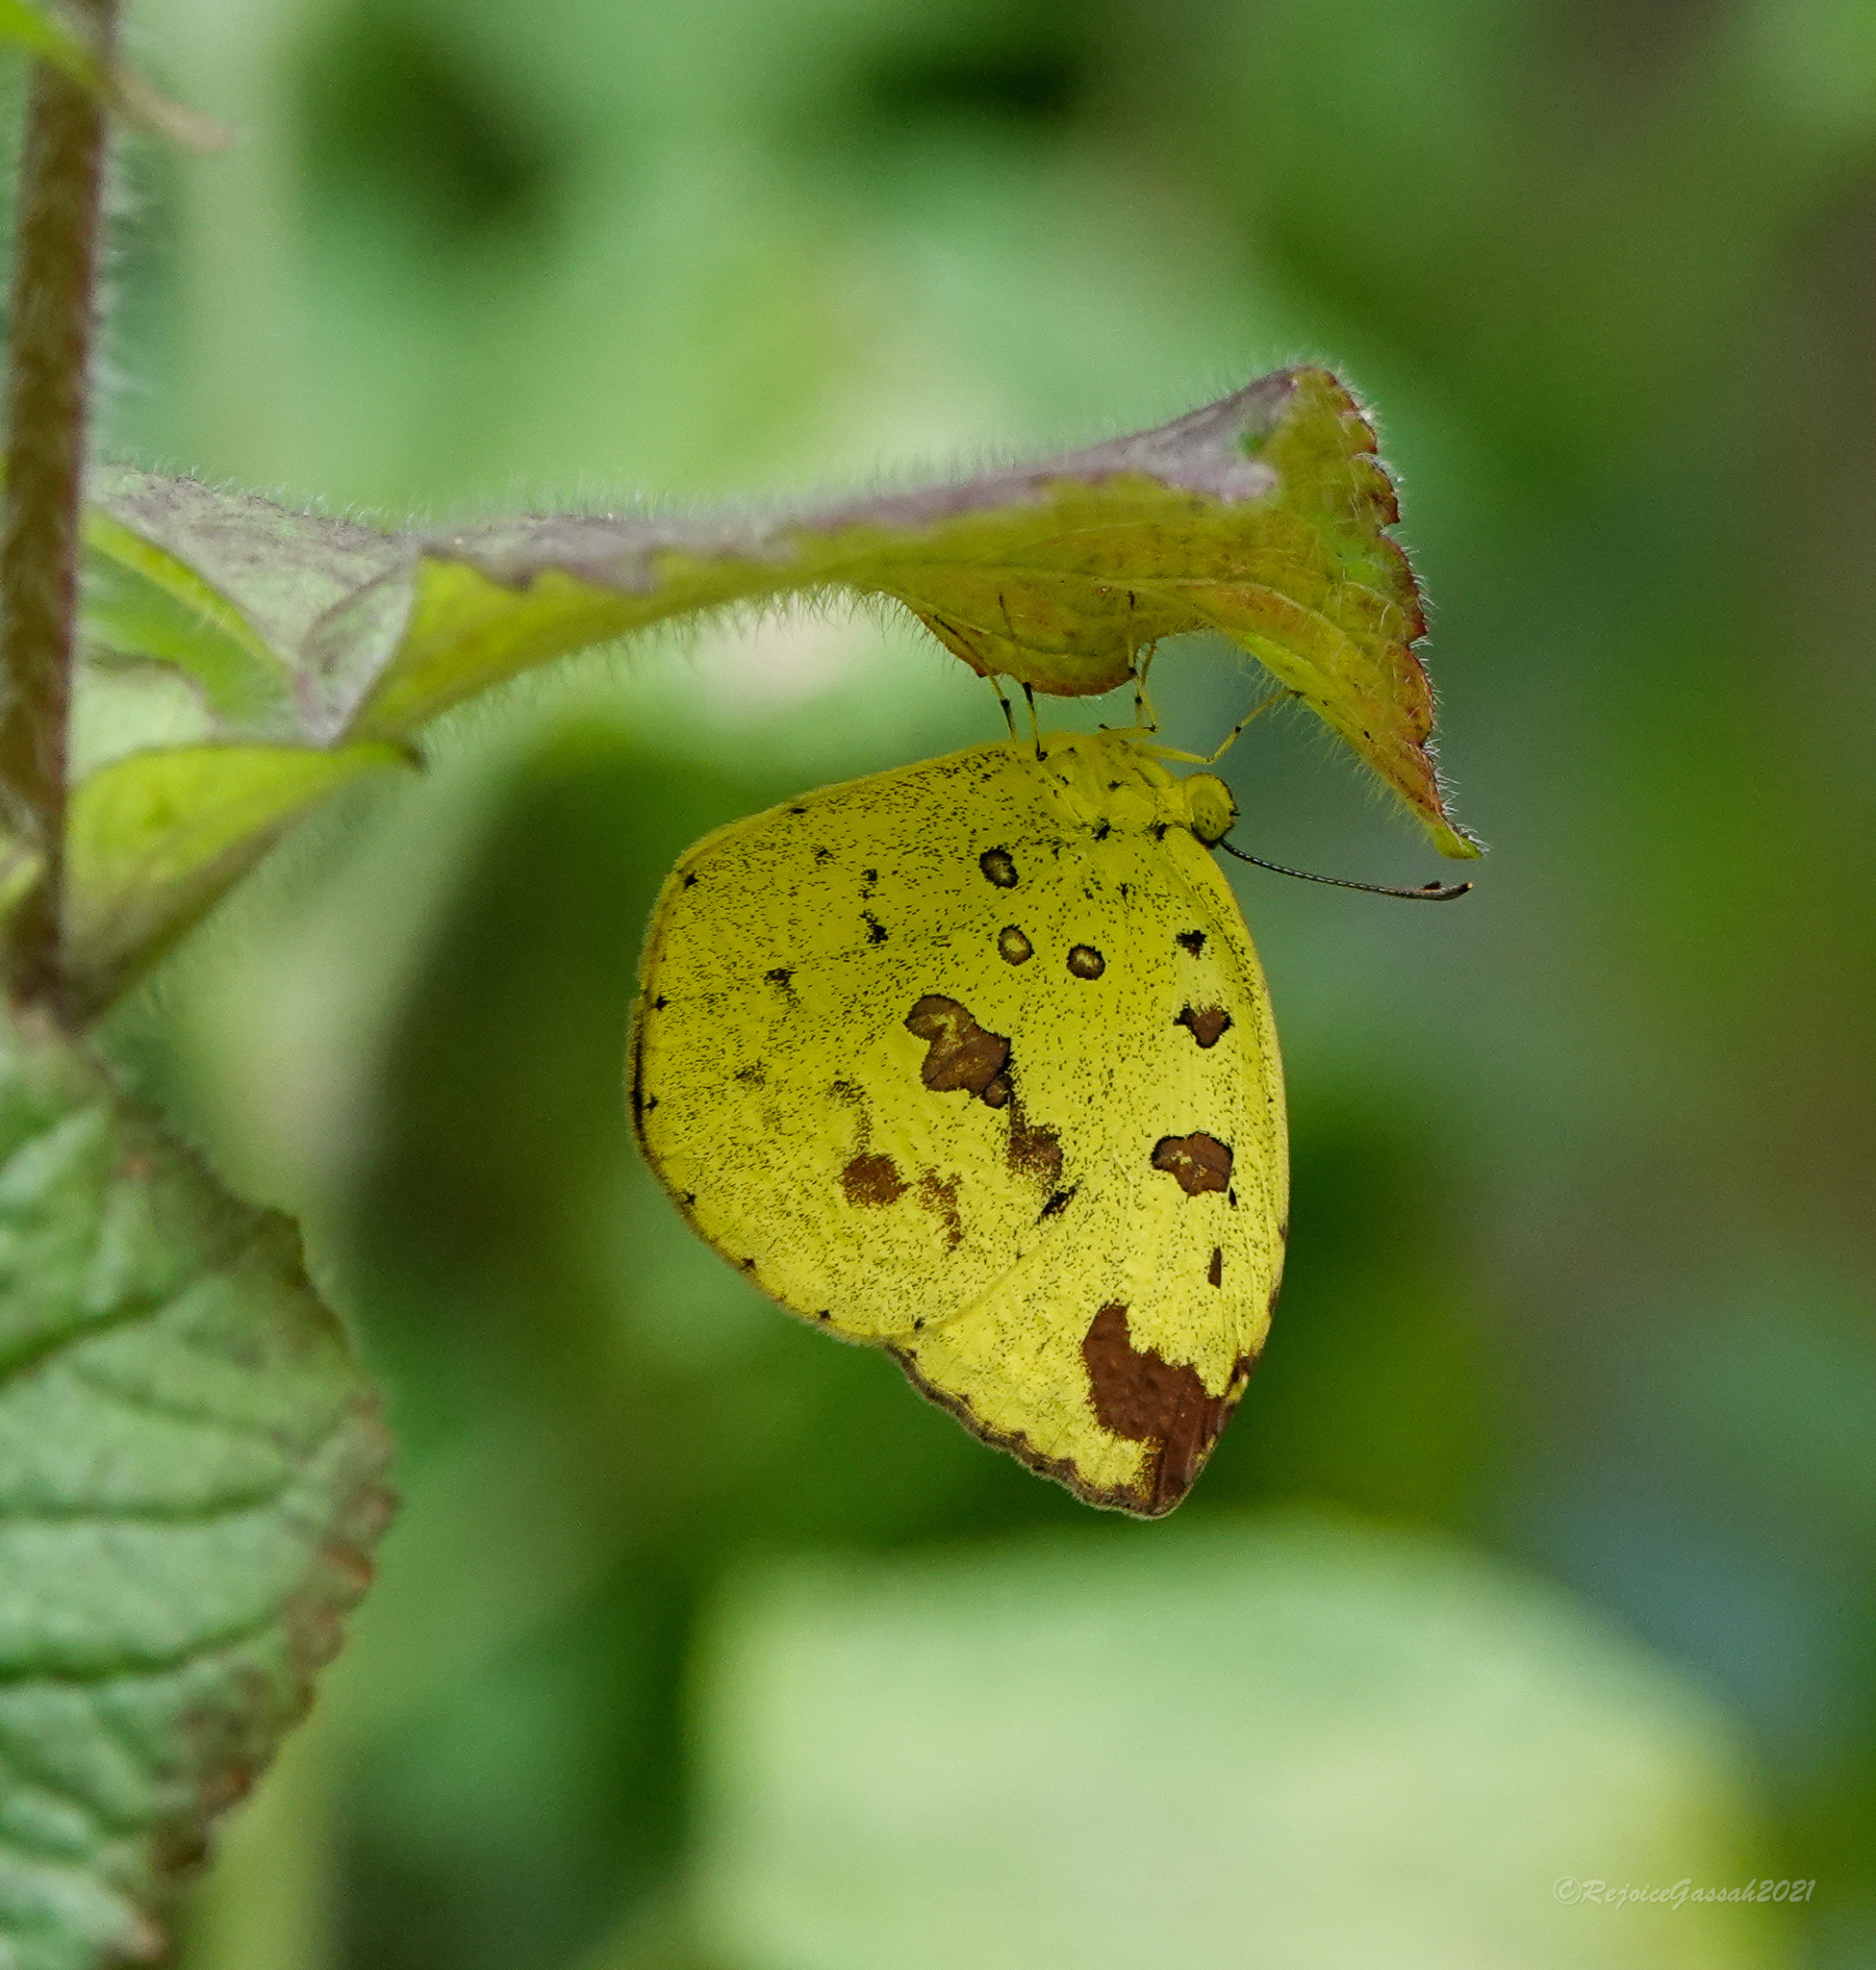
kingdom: Animalia
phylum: Arthropoda
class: Insecta
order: Lepidoptera
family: Pieridae
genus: Eurema
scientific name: Eurema hecabe
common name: Pale grass yellow
